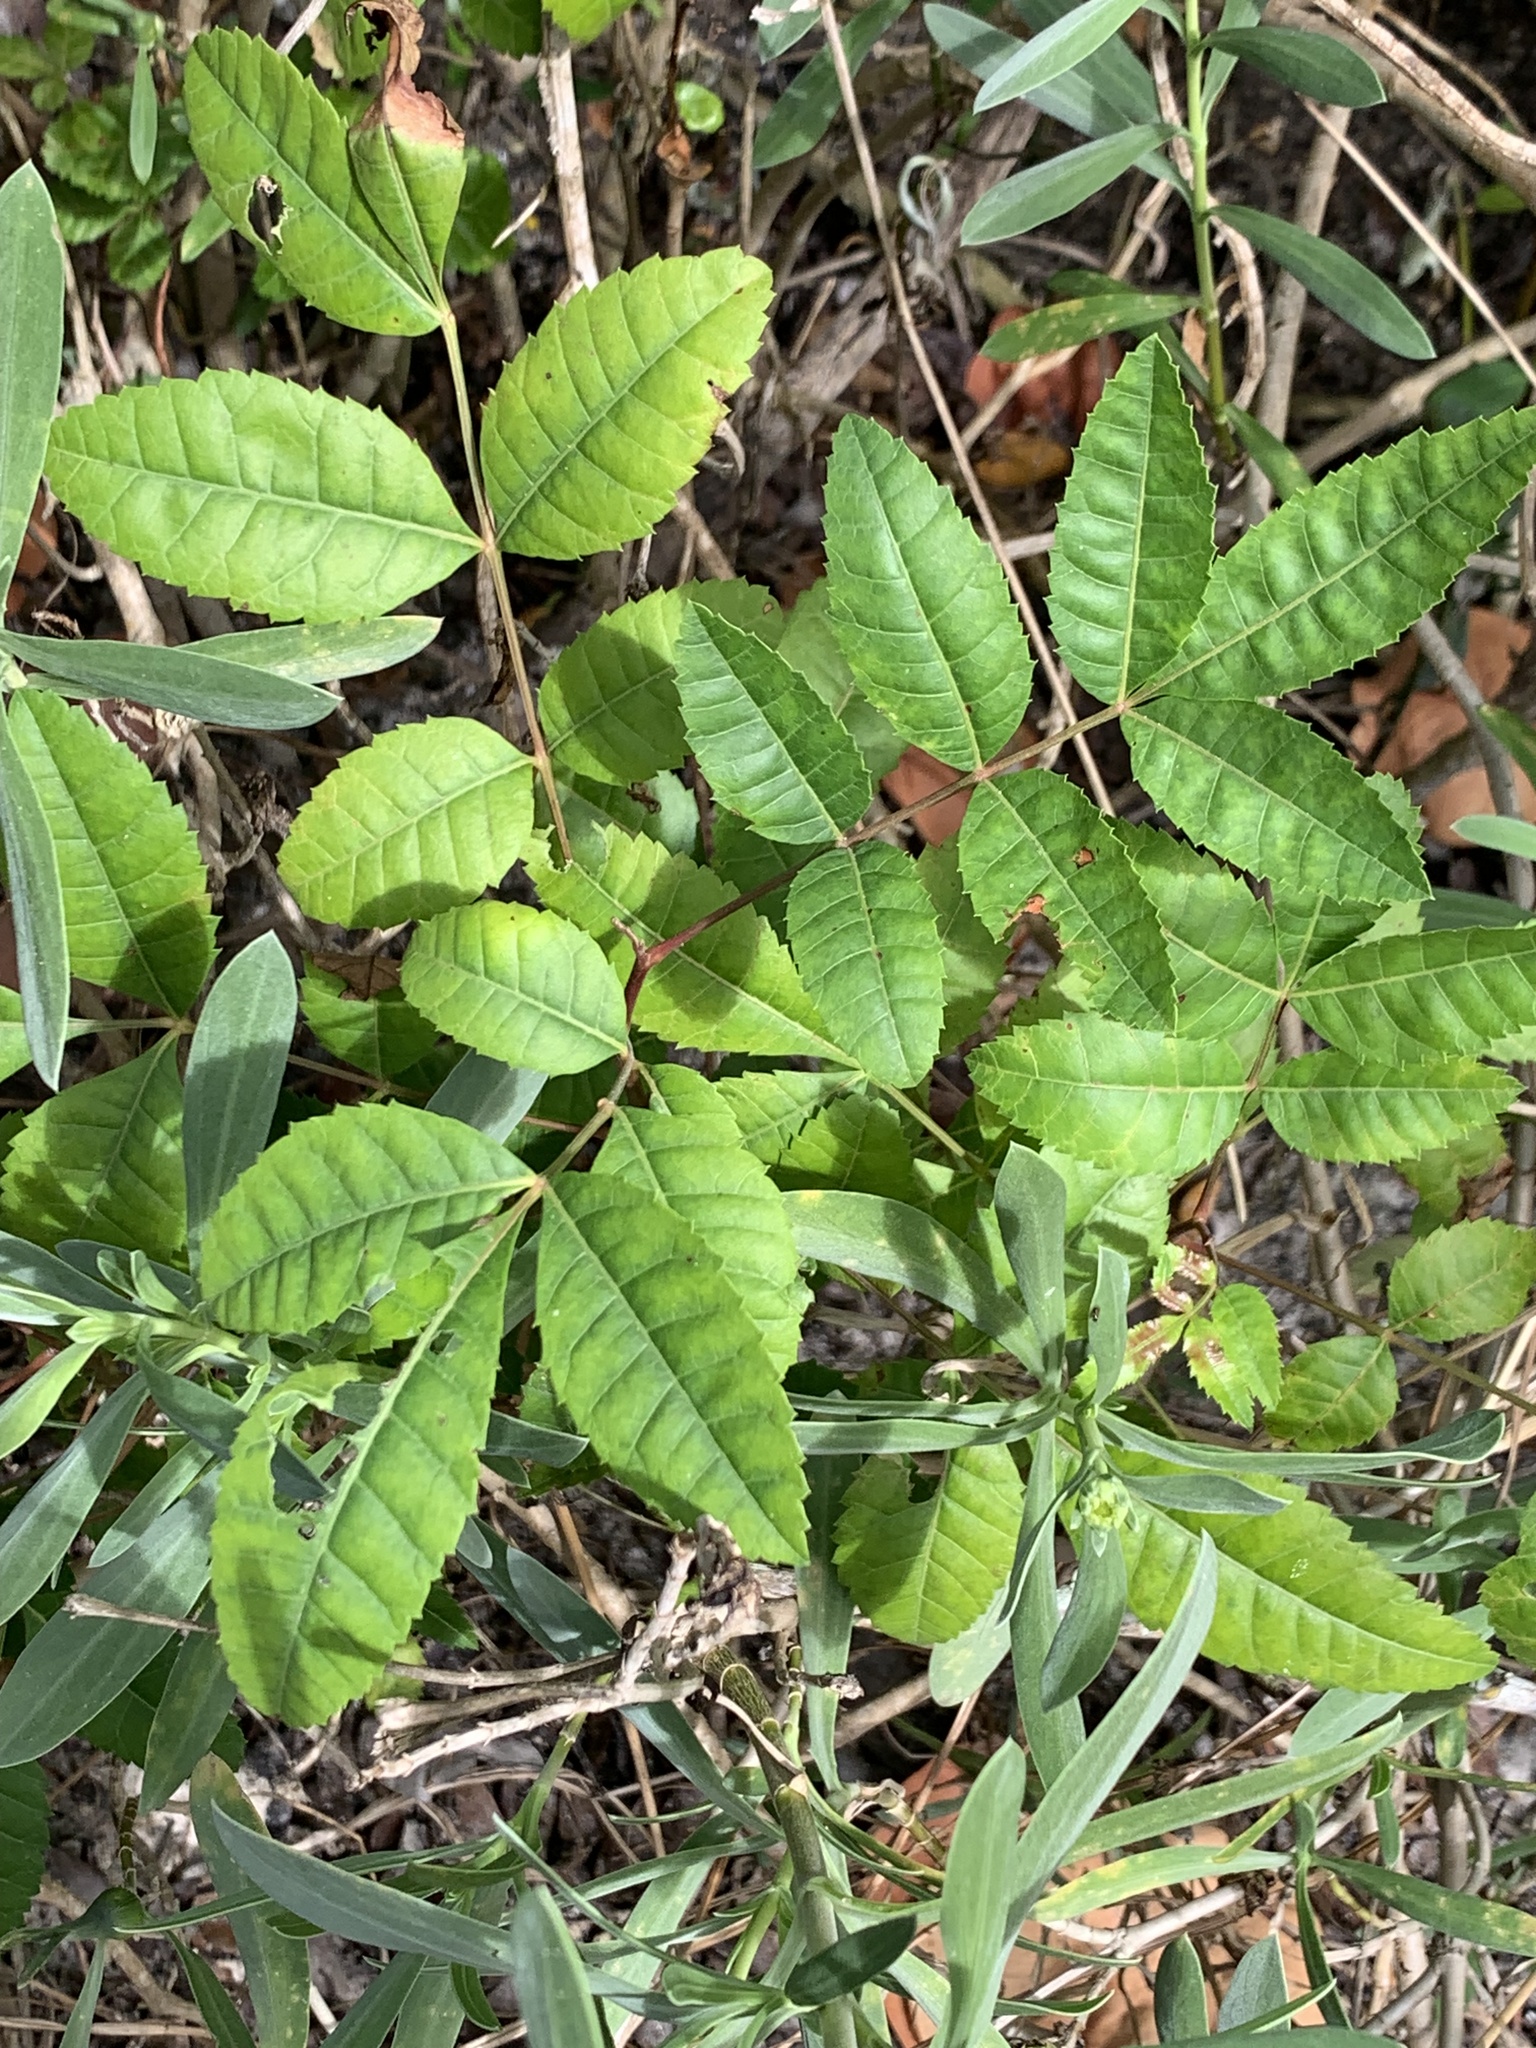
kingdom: Plantae
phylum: Tracheophyta
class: Magnoliopsida
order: Sapindales
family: Anacardiaceae
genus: Schinus
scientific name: Schinus terebinthifolia
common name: Brazilian peppertree
